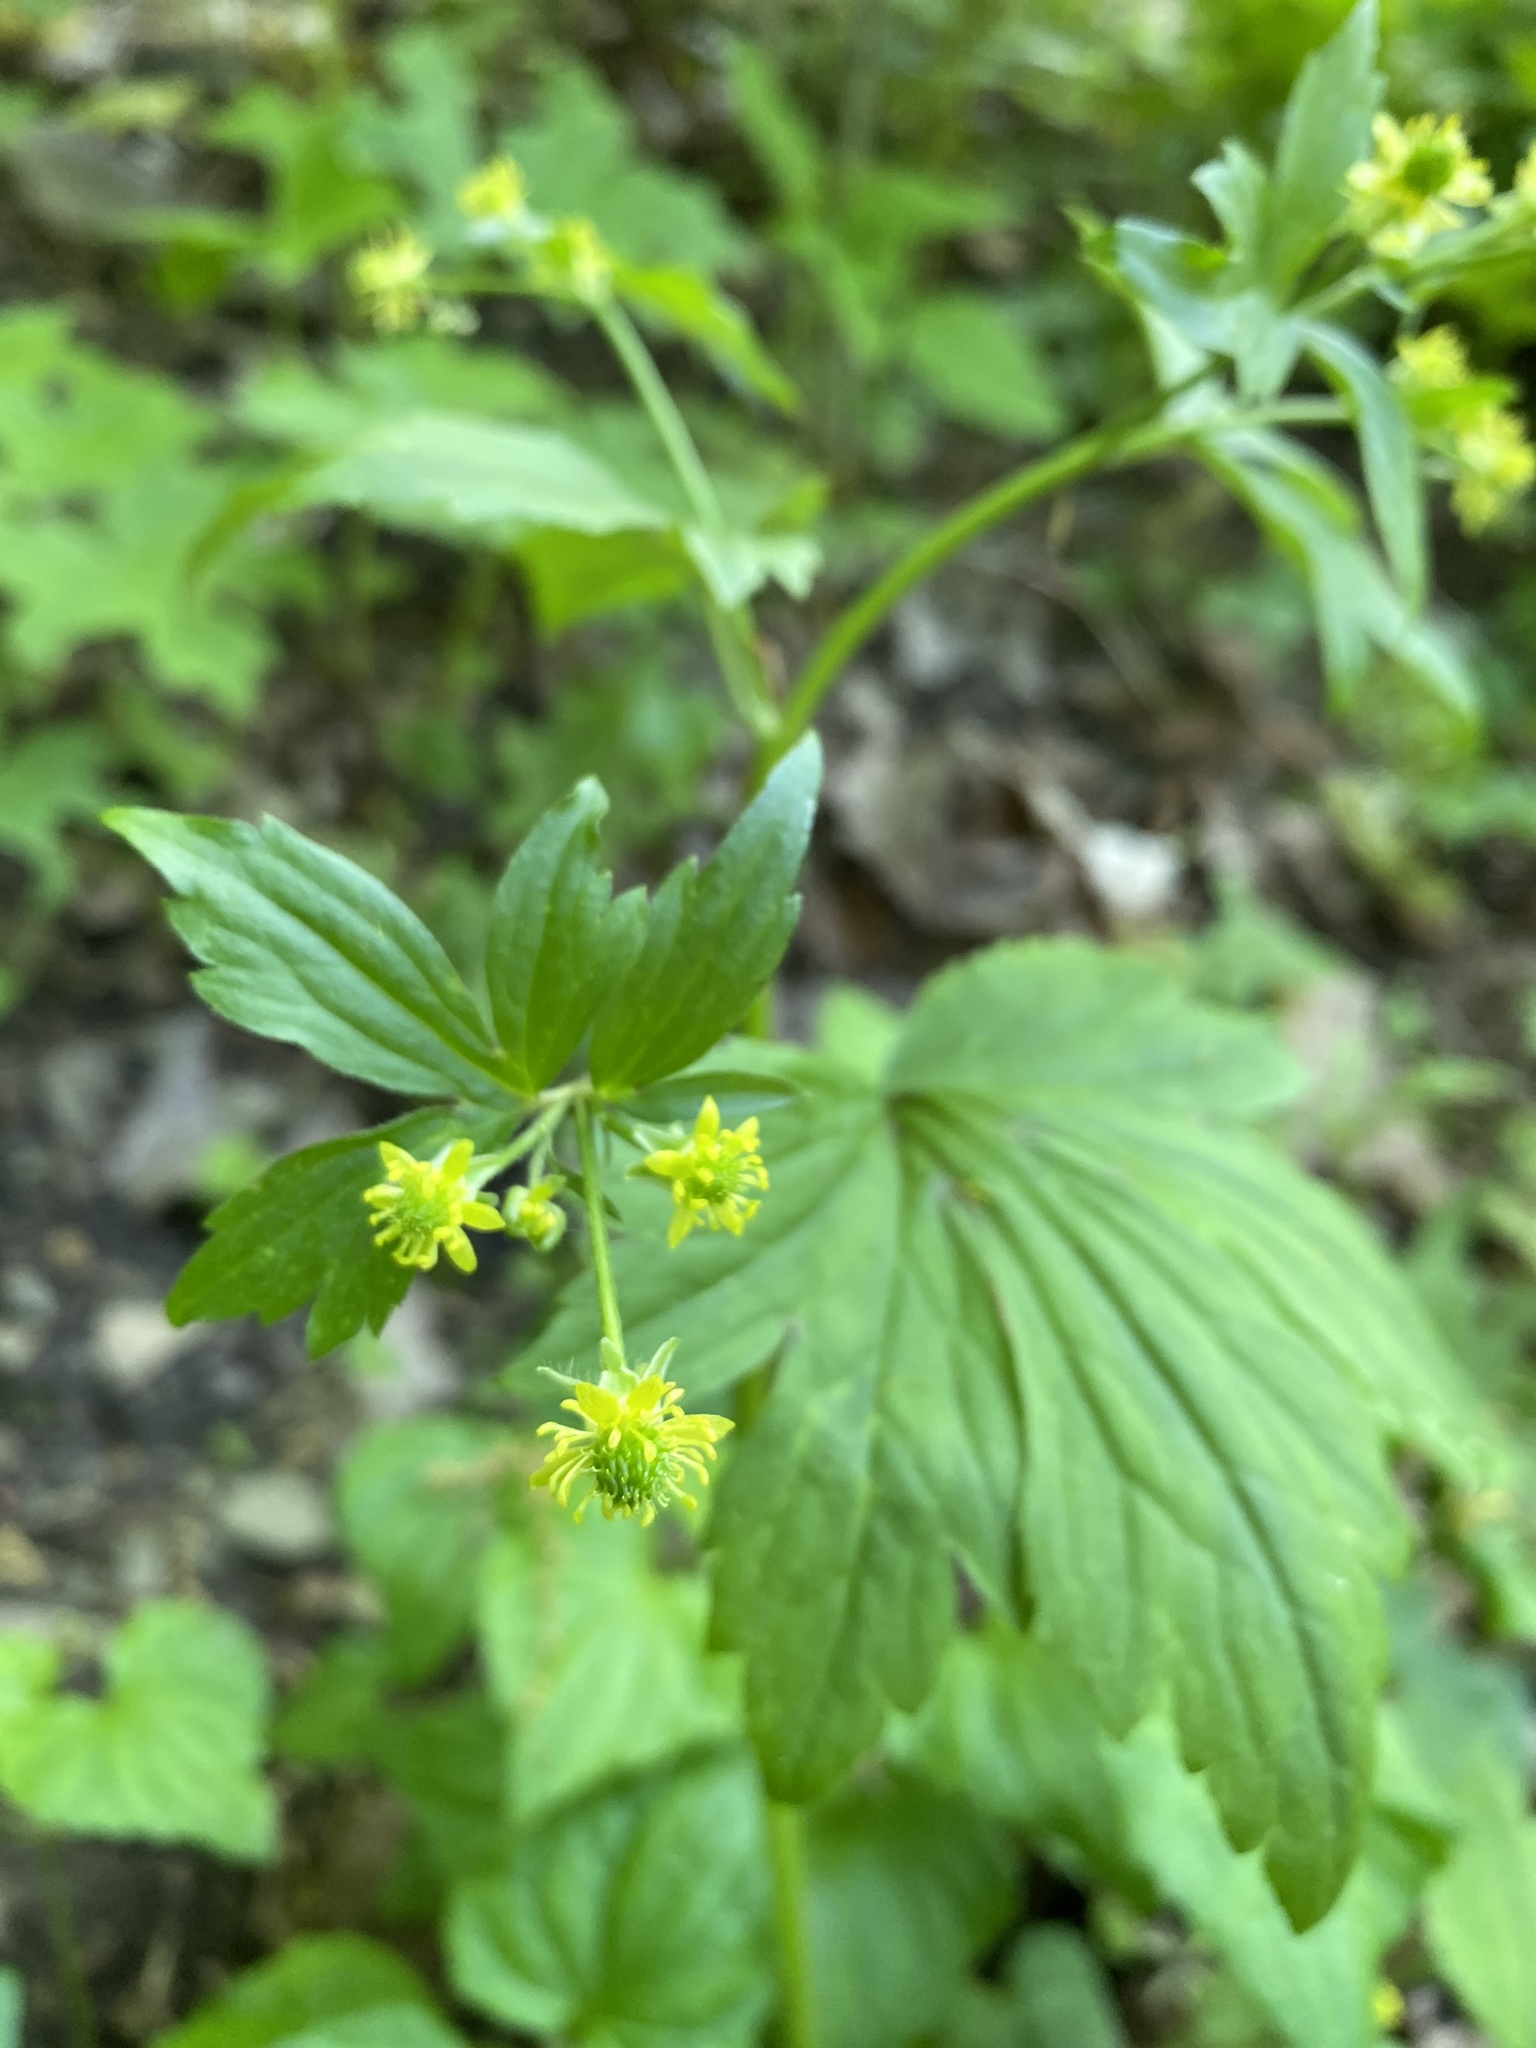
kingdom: Plantae
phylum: Tracheophyta
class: Magnoliopsida
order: Ranunculales
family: Ranunculaceae
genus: Ranunculus
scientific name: Ranunculus recurvatus
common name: Blisterwort
